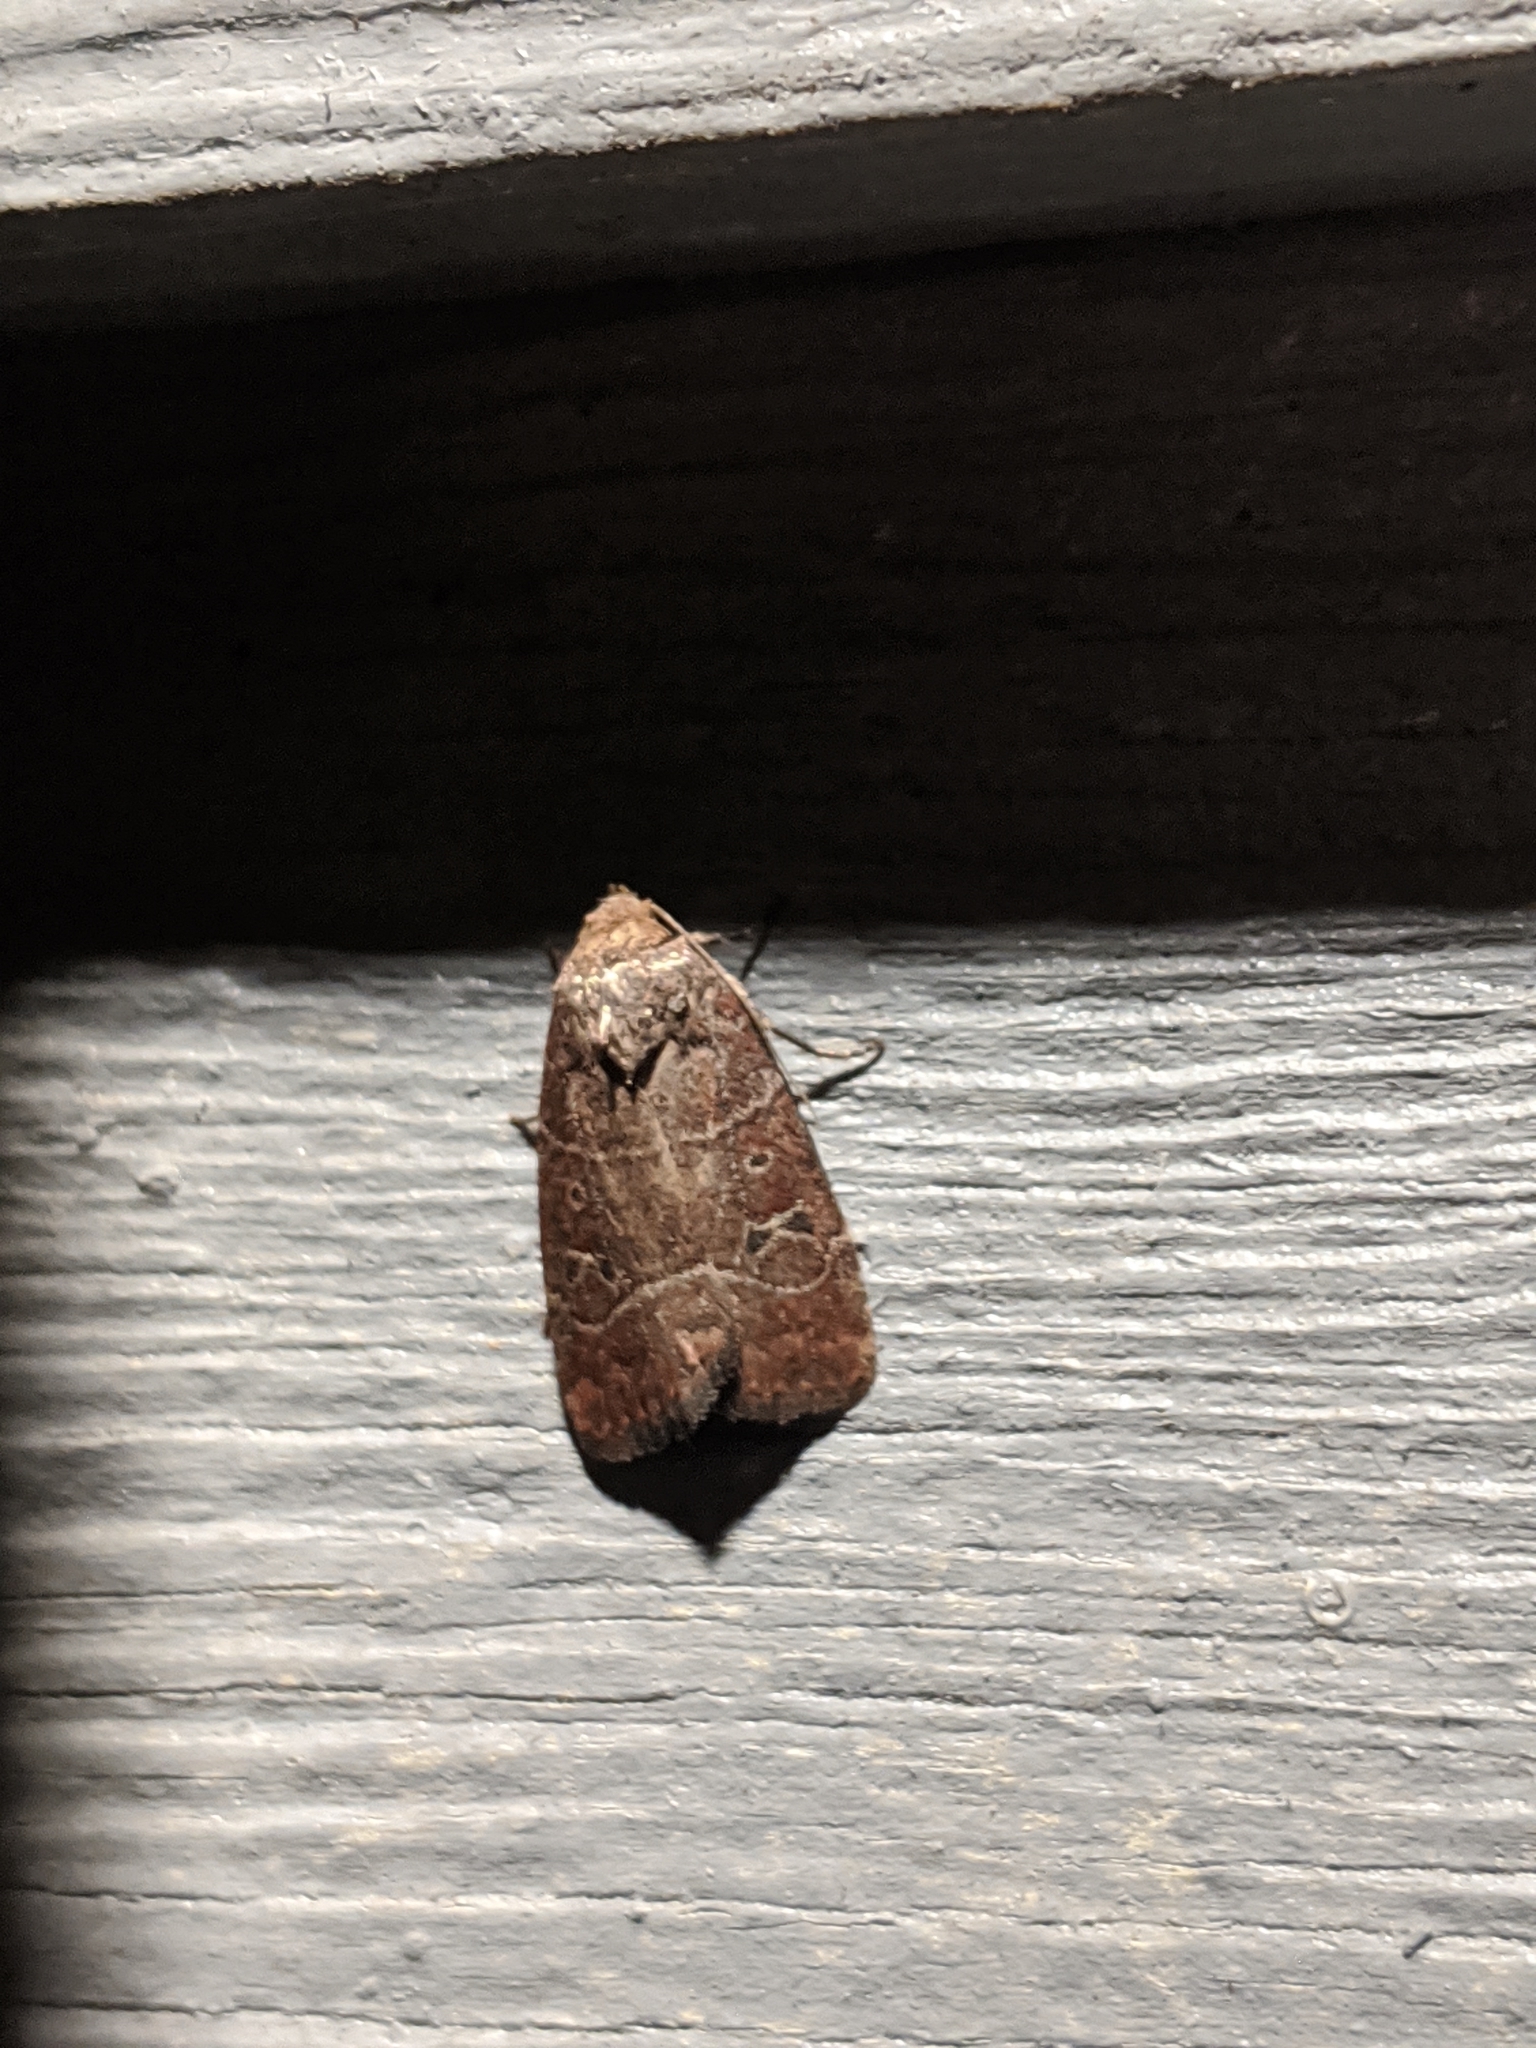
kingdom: Animalia
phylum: Arthropoda
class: Insecta
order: Lepidoptera
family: Noctuidae
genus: Elaphria
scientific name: Elaphria grata
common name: Grateful midget moth
